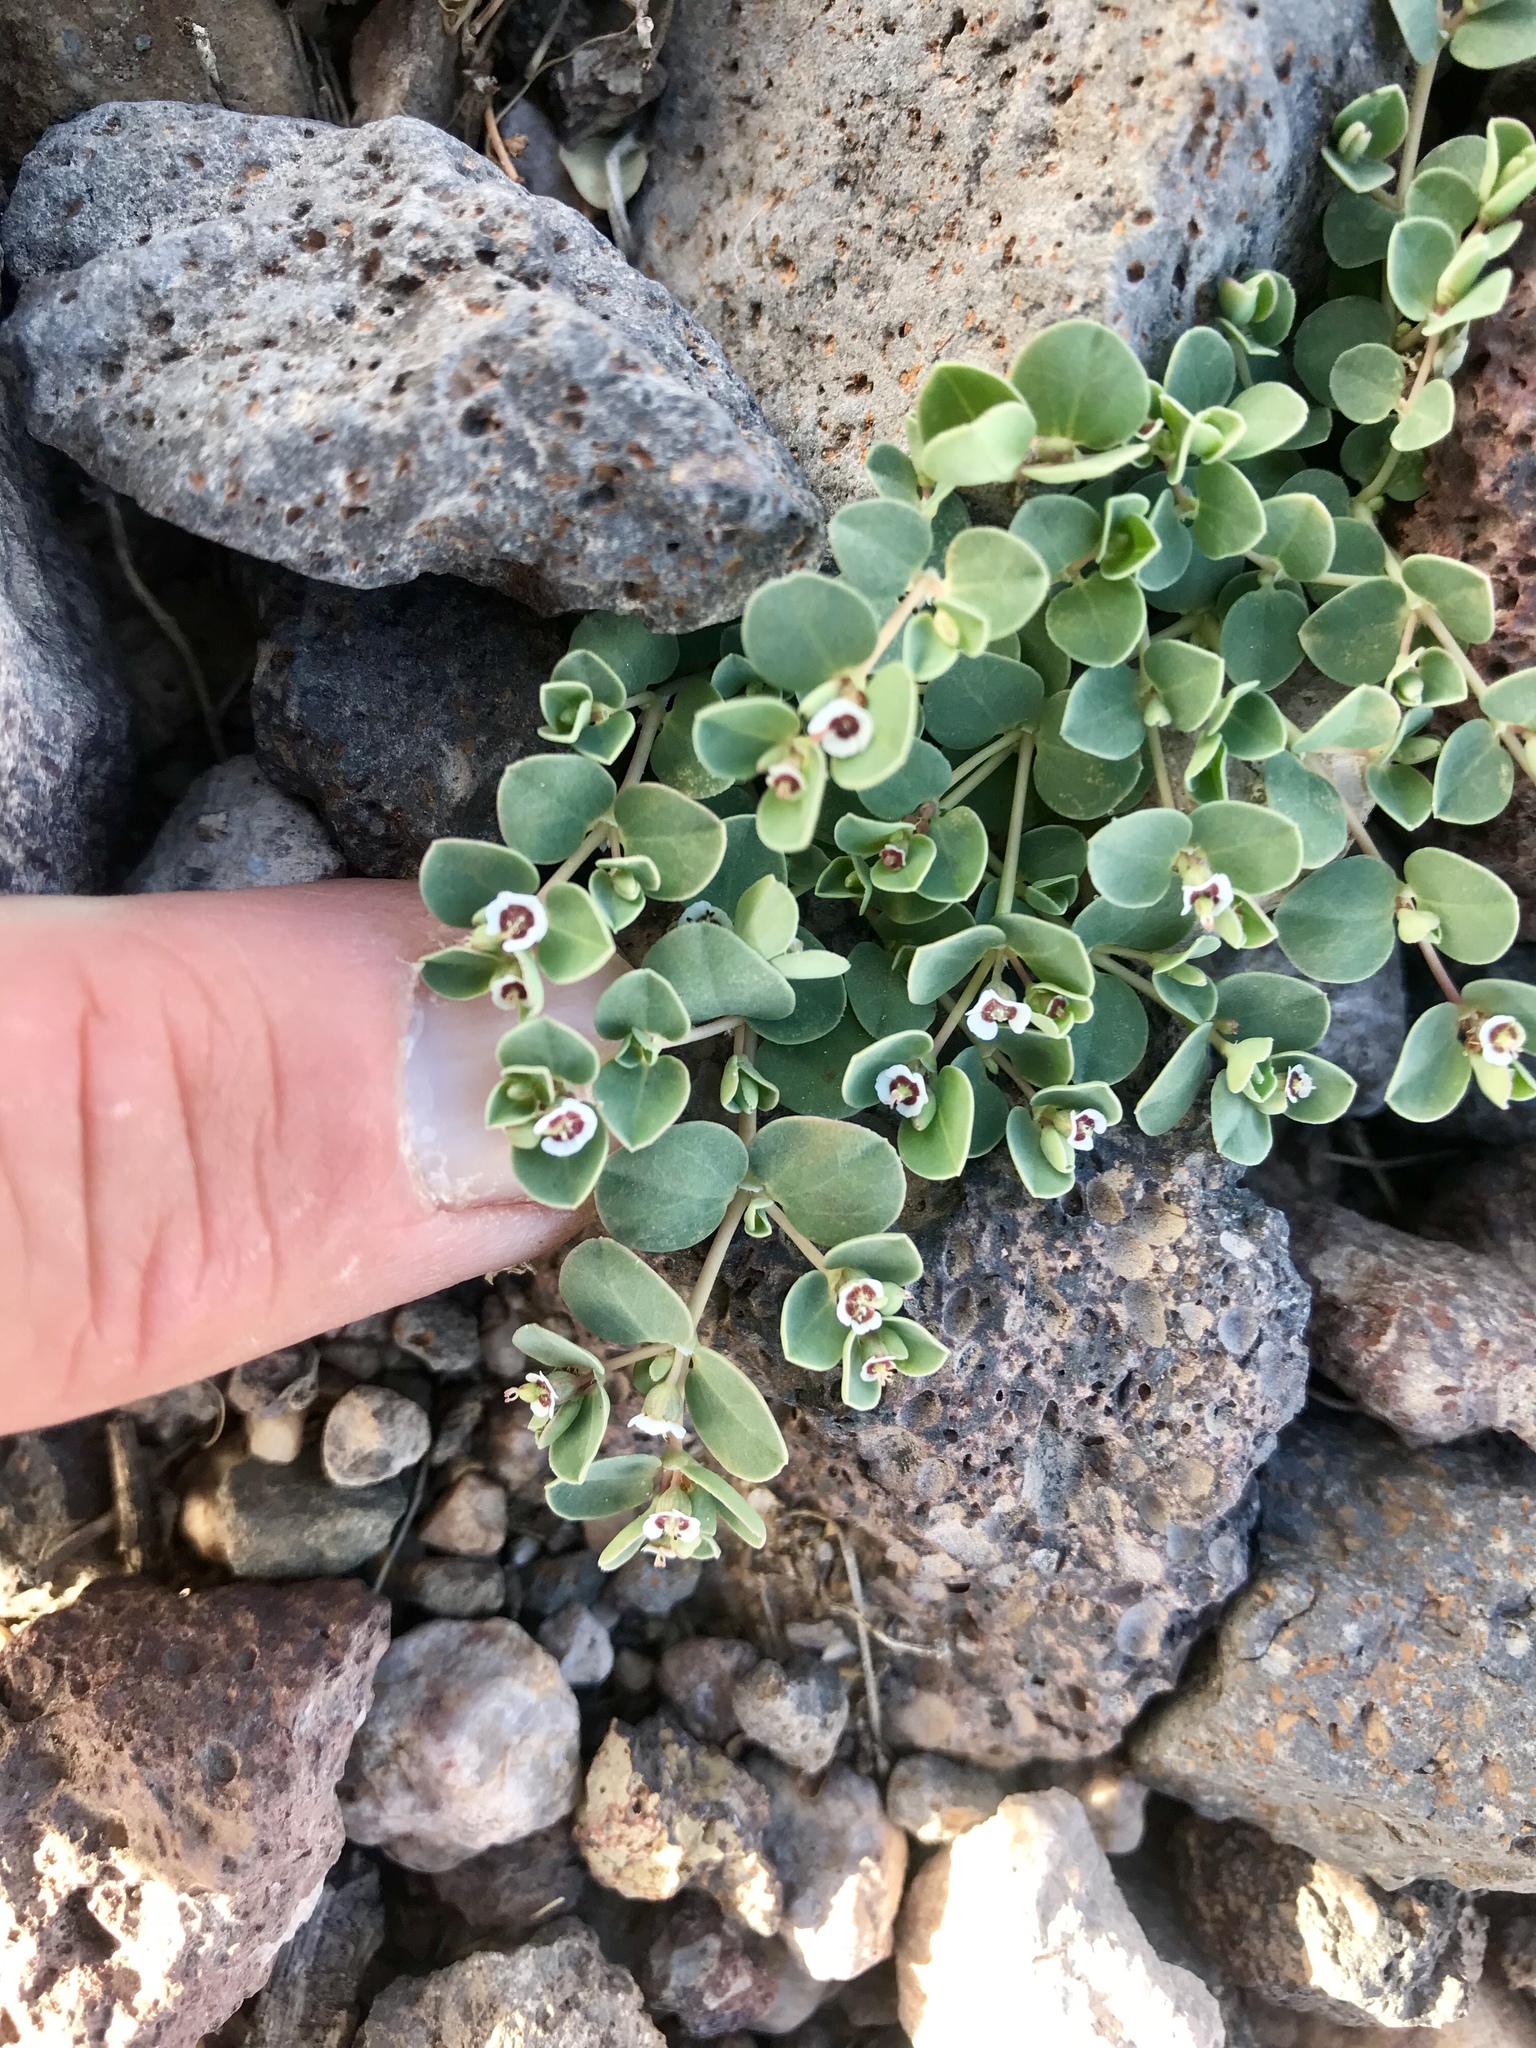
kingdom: Plantae
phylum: Tracheophyta
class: Magnoliopsida
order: Malpighiales
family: Euphorbiaceae
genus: Euphorbia
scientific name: Euphorbia albomarginata
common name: Whitemargin sandmat
